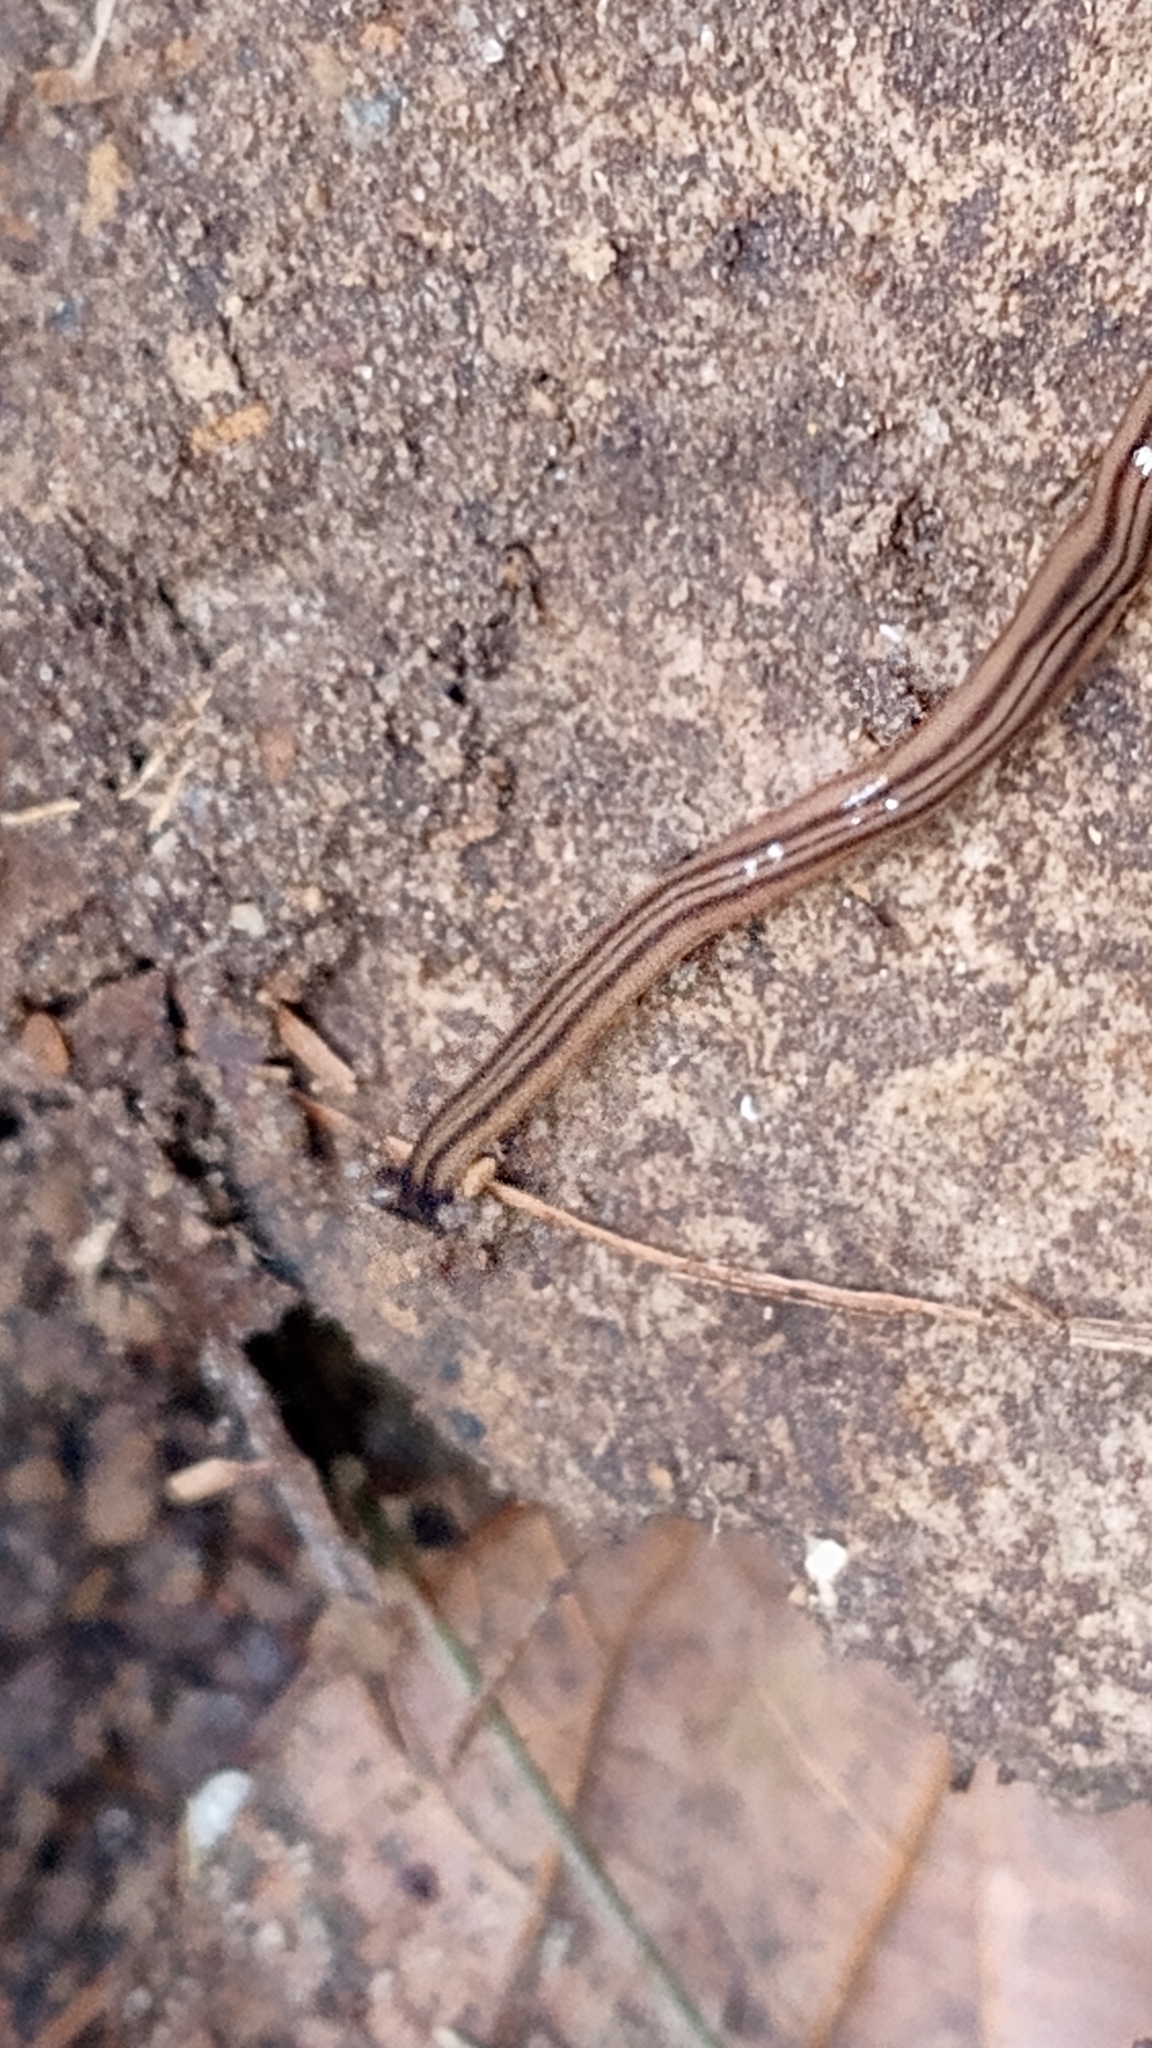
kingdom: Animalia
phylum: Platyhelminthes
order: Tricladida
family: Geoplanidae
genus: Bipalium
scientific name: Bipalium kewense
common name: Hammerhead flatworm
